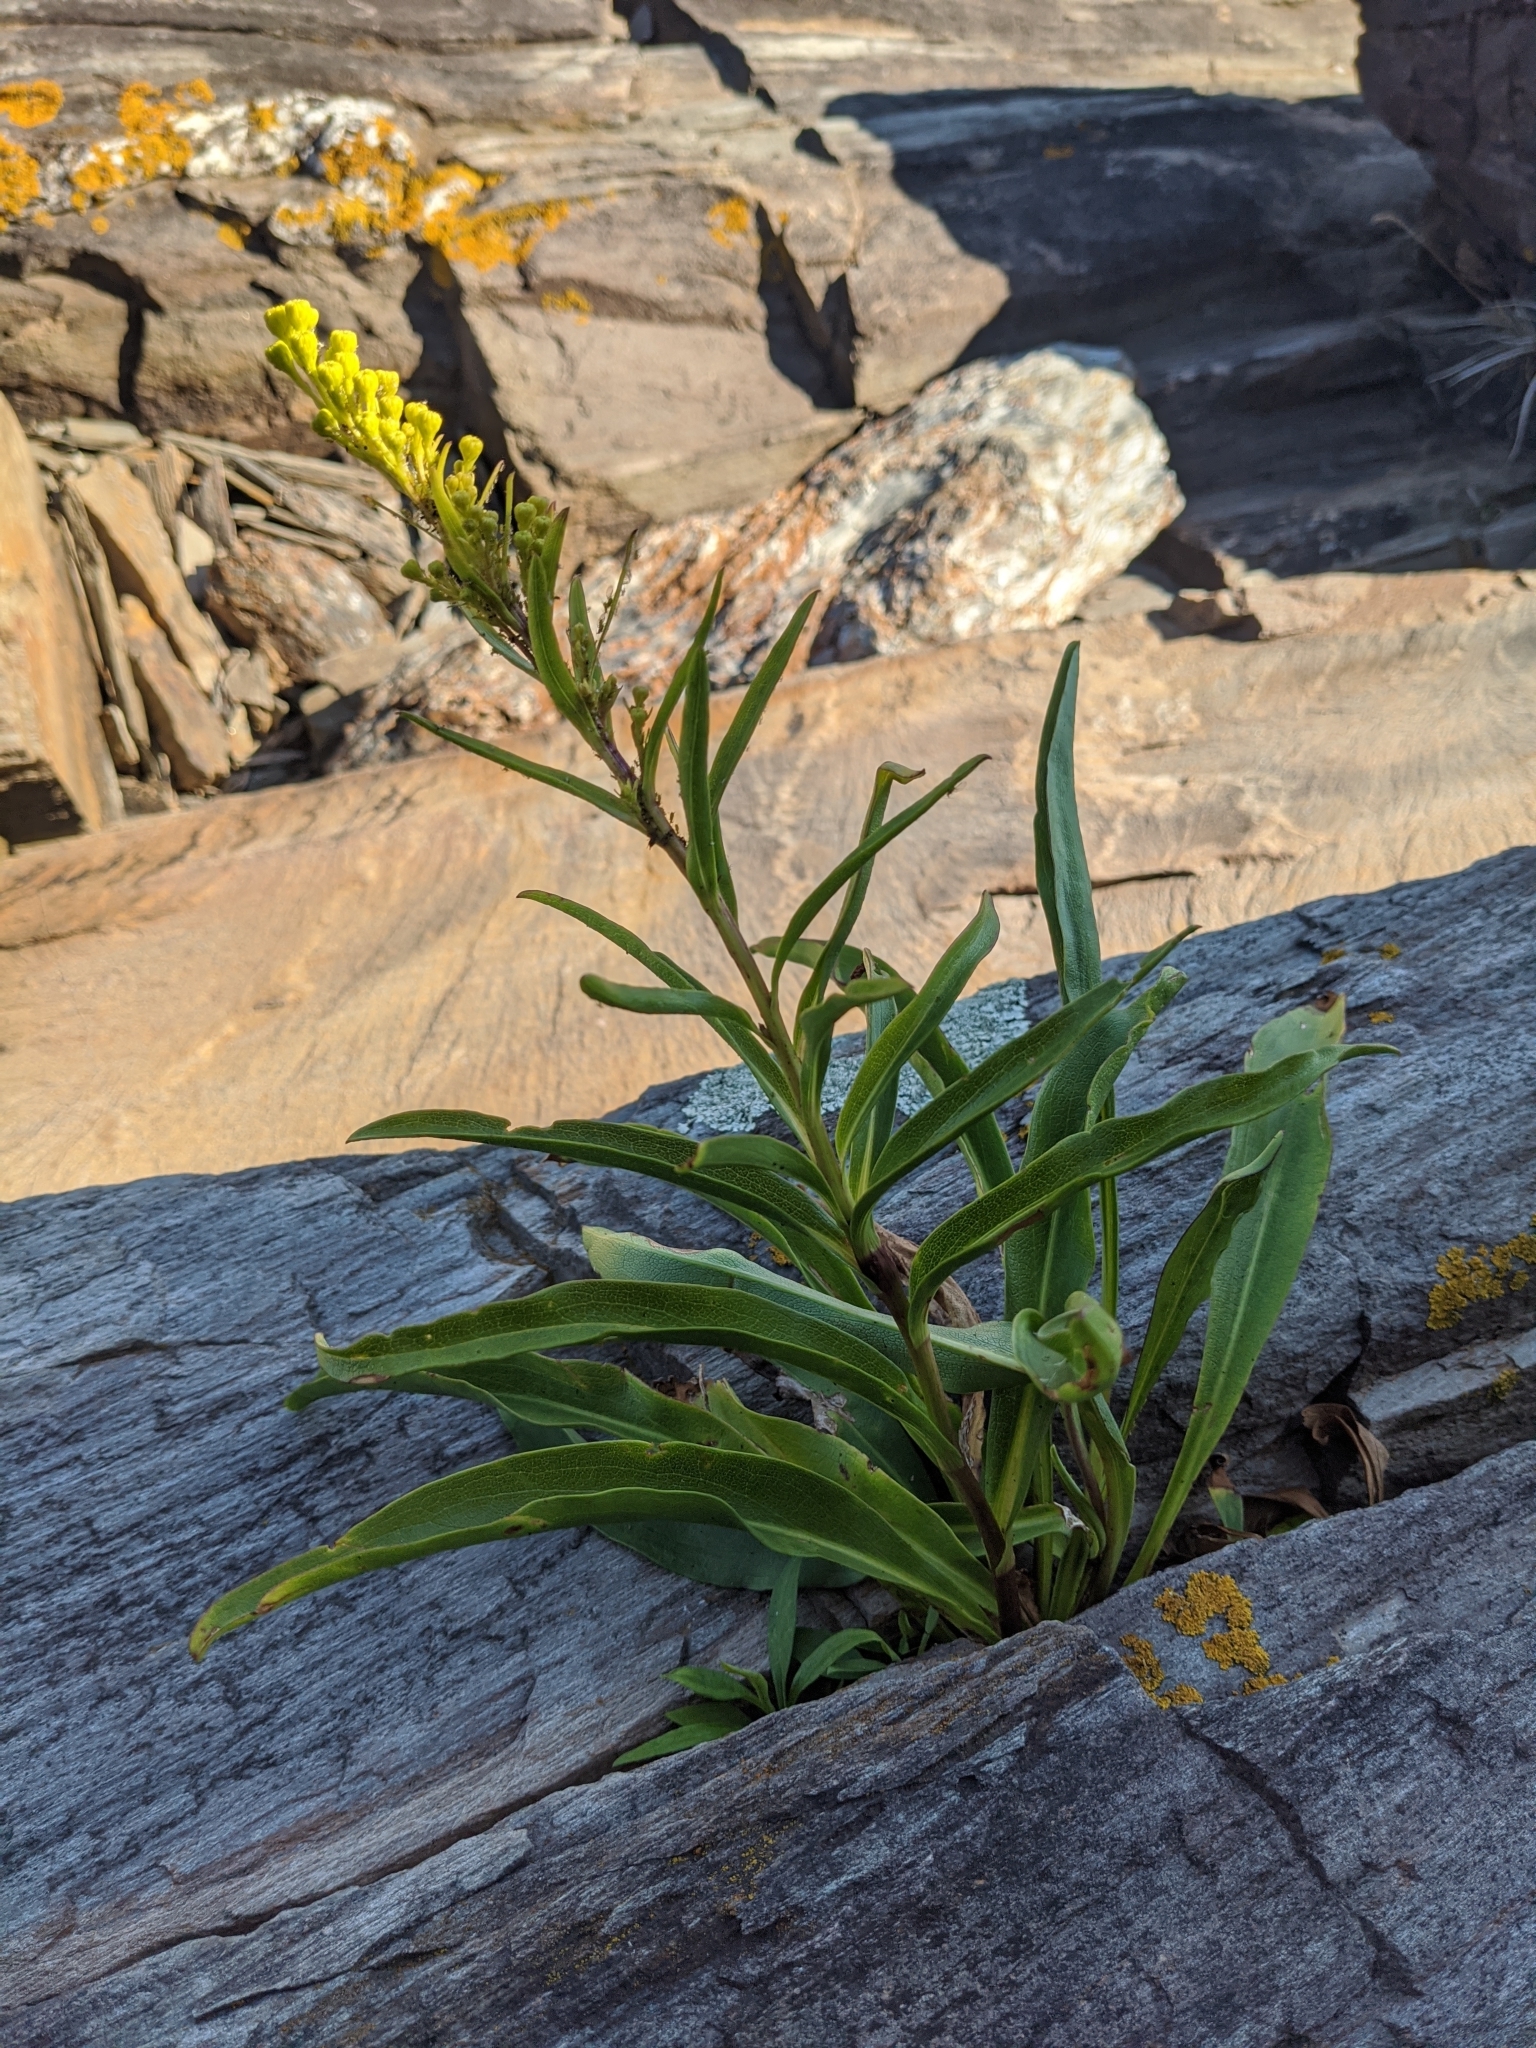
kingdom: Plantae
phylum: Tracheophyta
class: Magnoliopsida
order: Asterales
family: Asteraceae
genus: Solidago
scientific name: Solidago sempervirens
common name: Salt-marsh goldenrod
